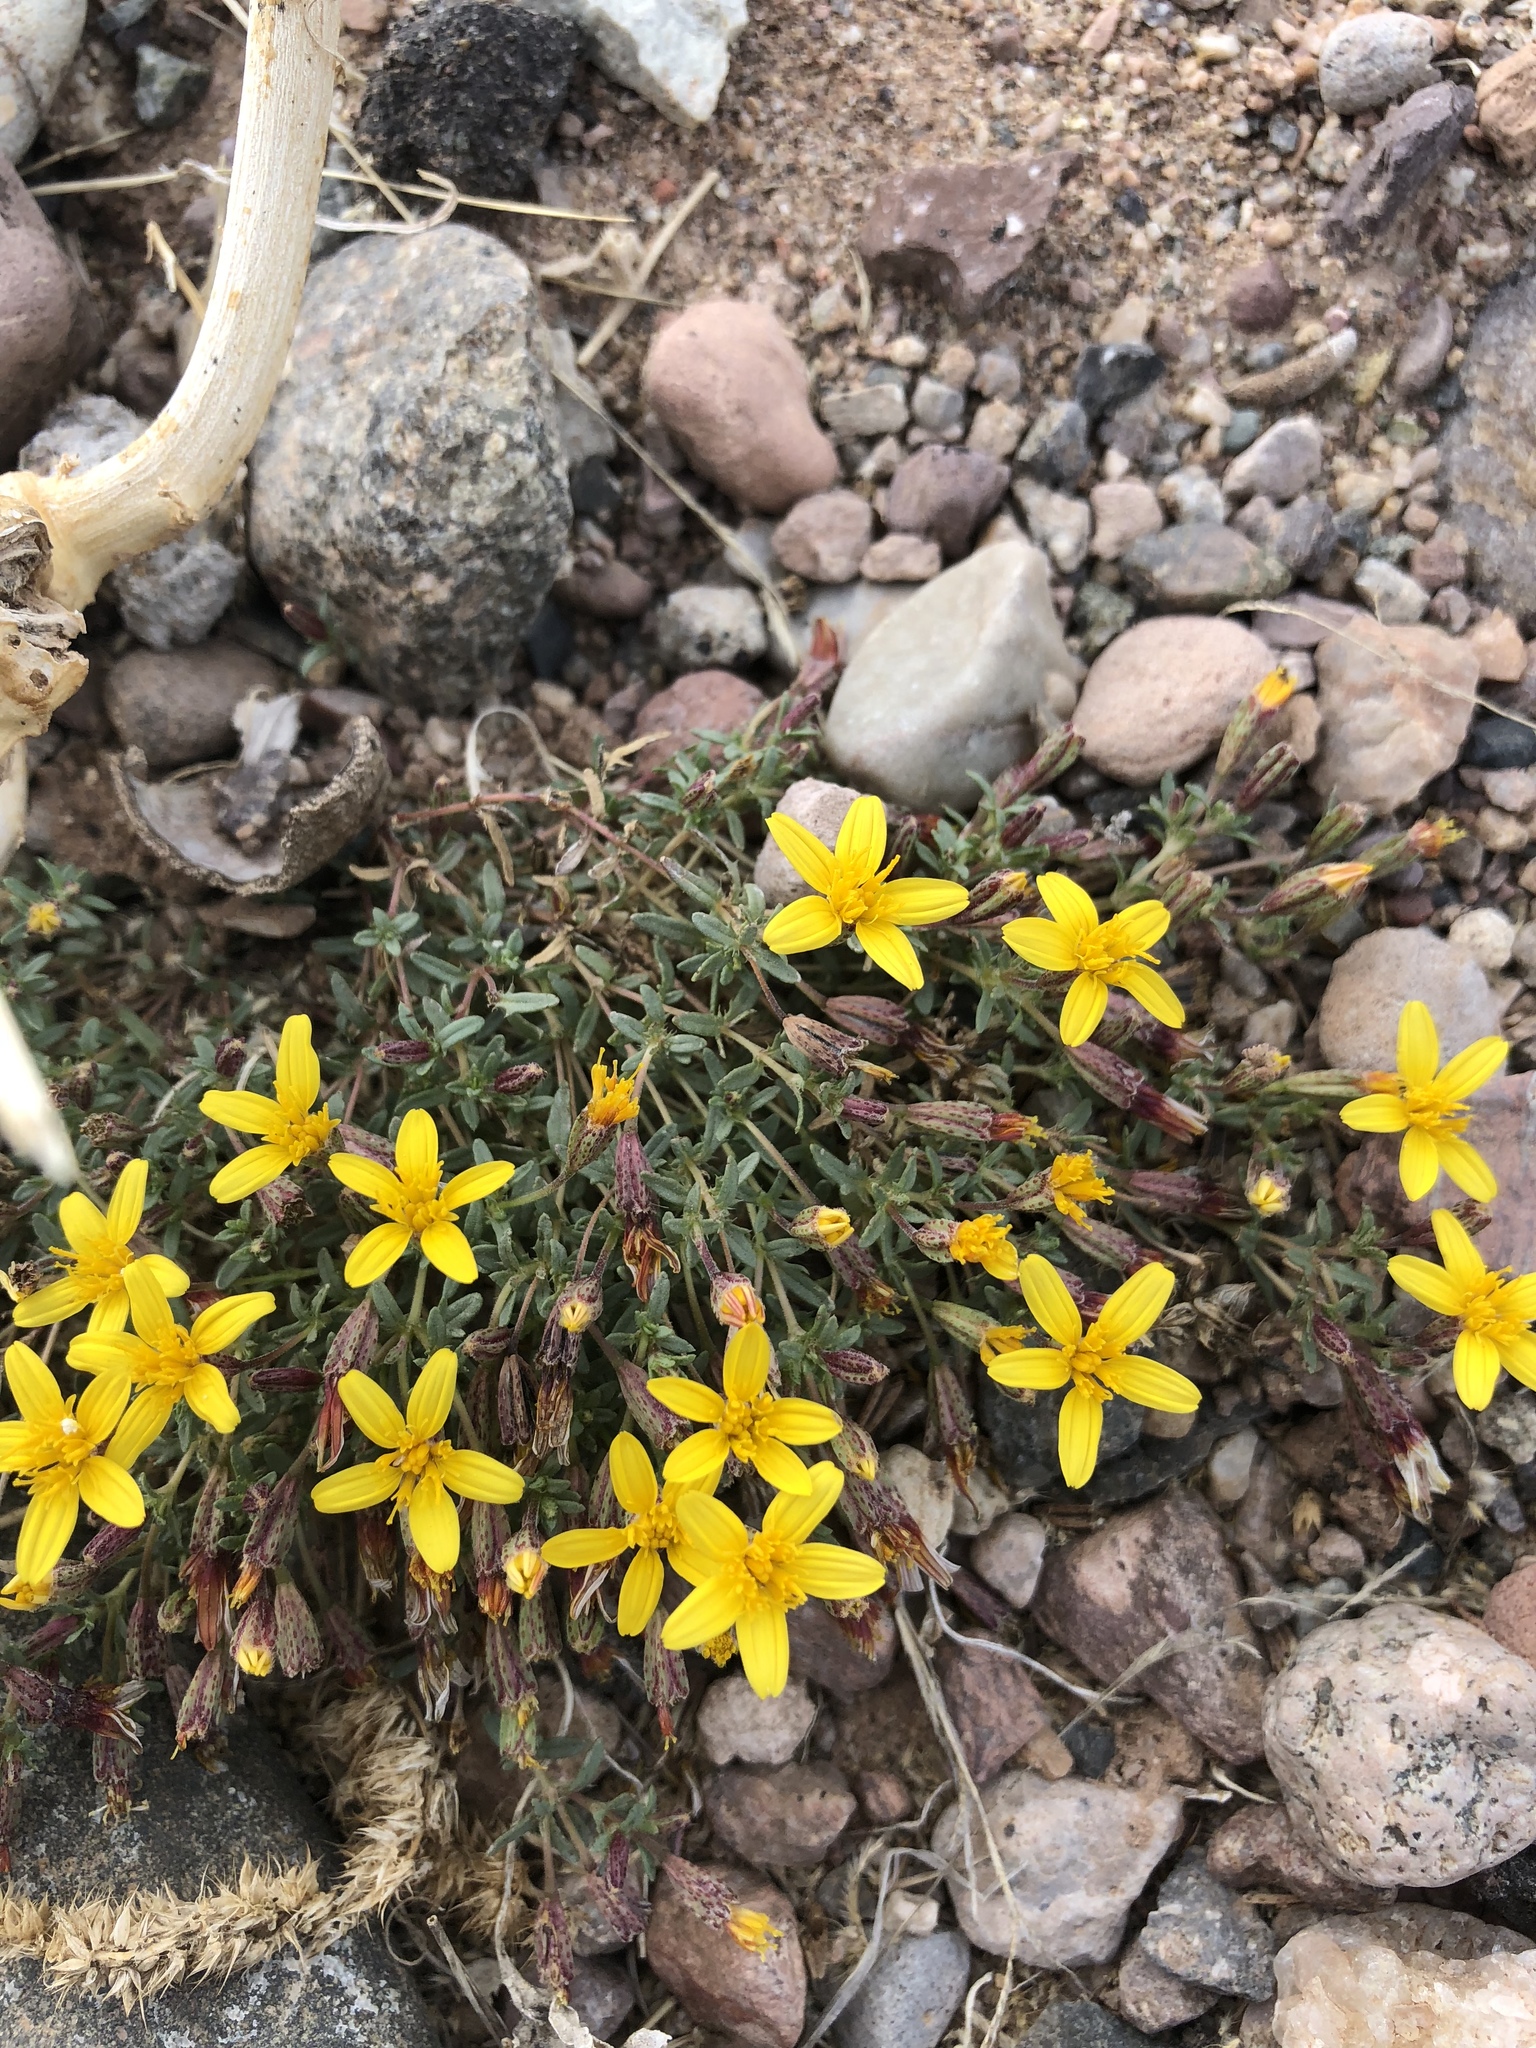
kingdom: Plantae
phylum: Tracheophyta
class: Magnoliopsida
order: Asterales
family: Asteraceae
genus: Pectis
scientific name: Pectis rusbyi
